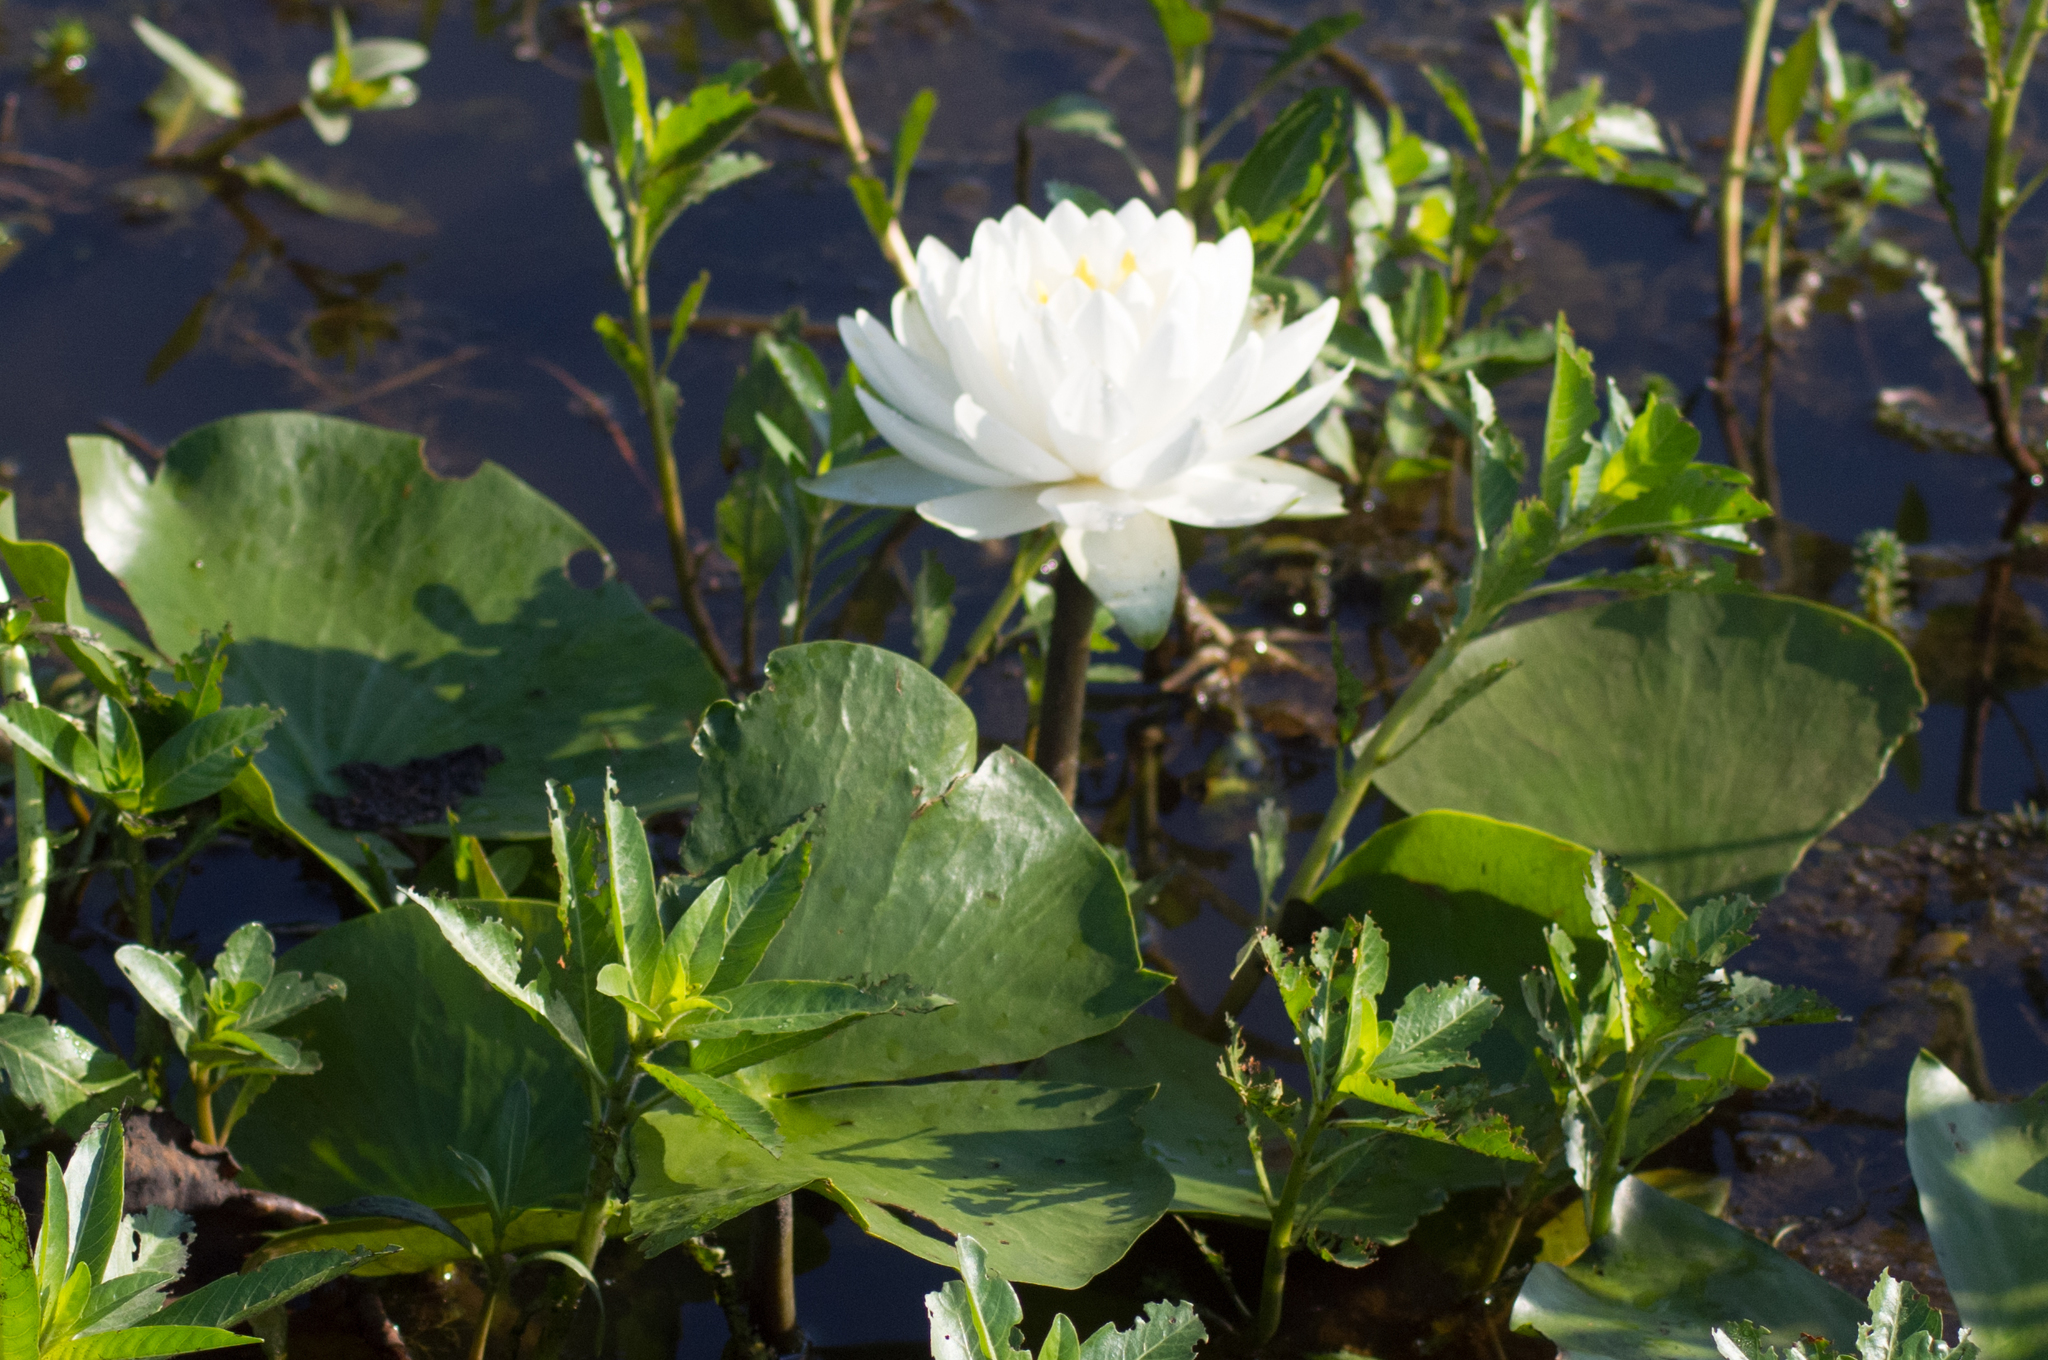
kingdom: Plantae
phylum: Tracheophyta
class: Magnoliopsida
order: Nymphaeales
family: Nymphaeaceae
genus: Nymphaea
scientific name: Nymphaea odorata
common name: Fragrant water-lily
